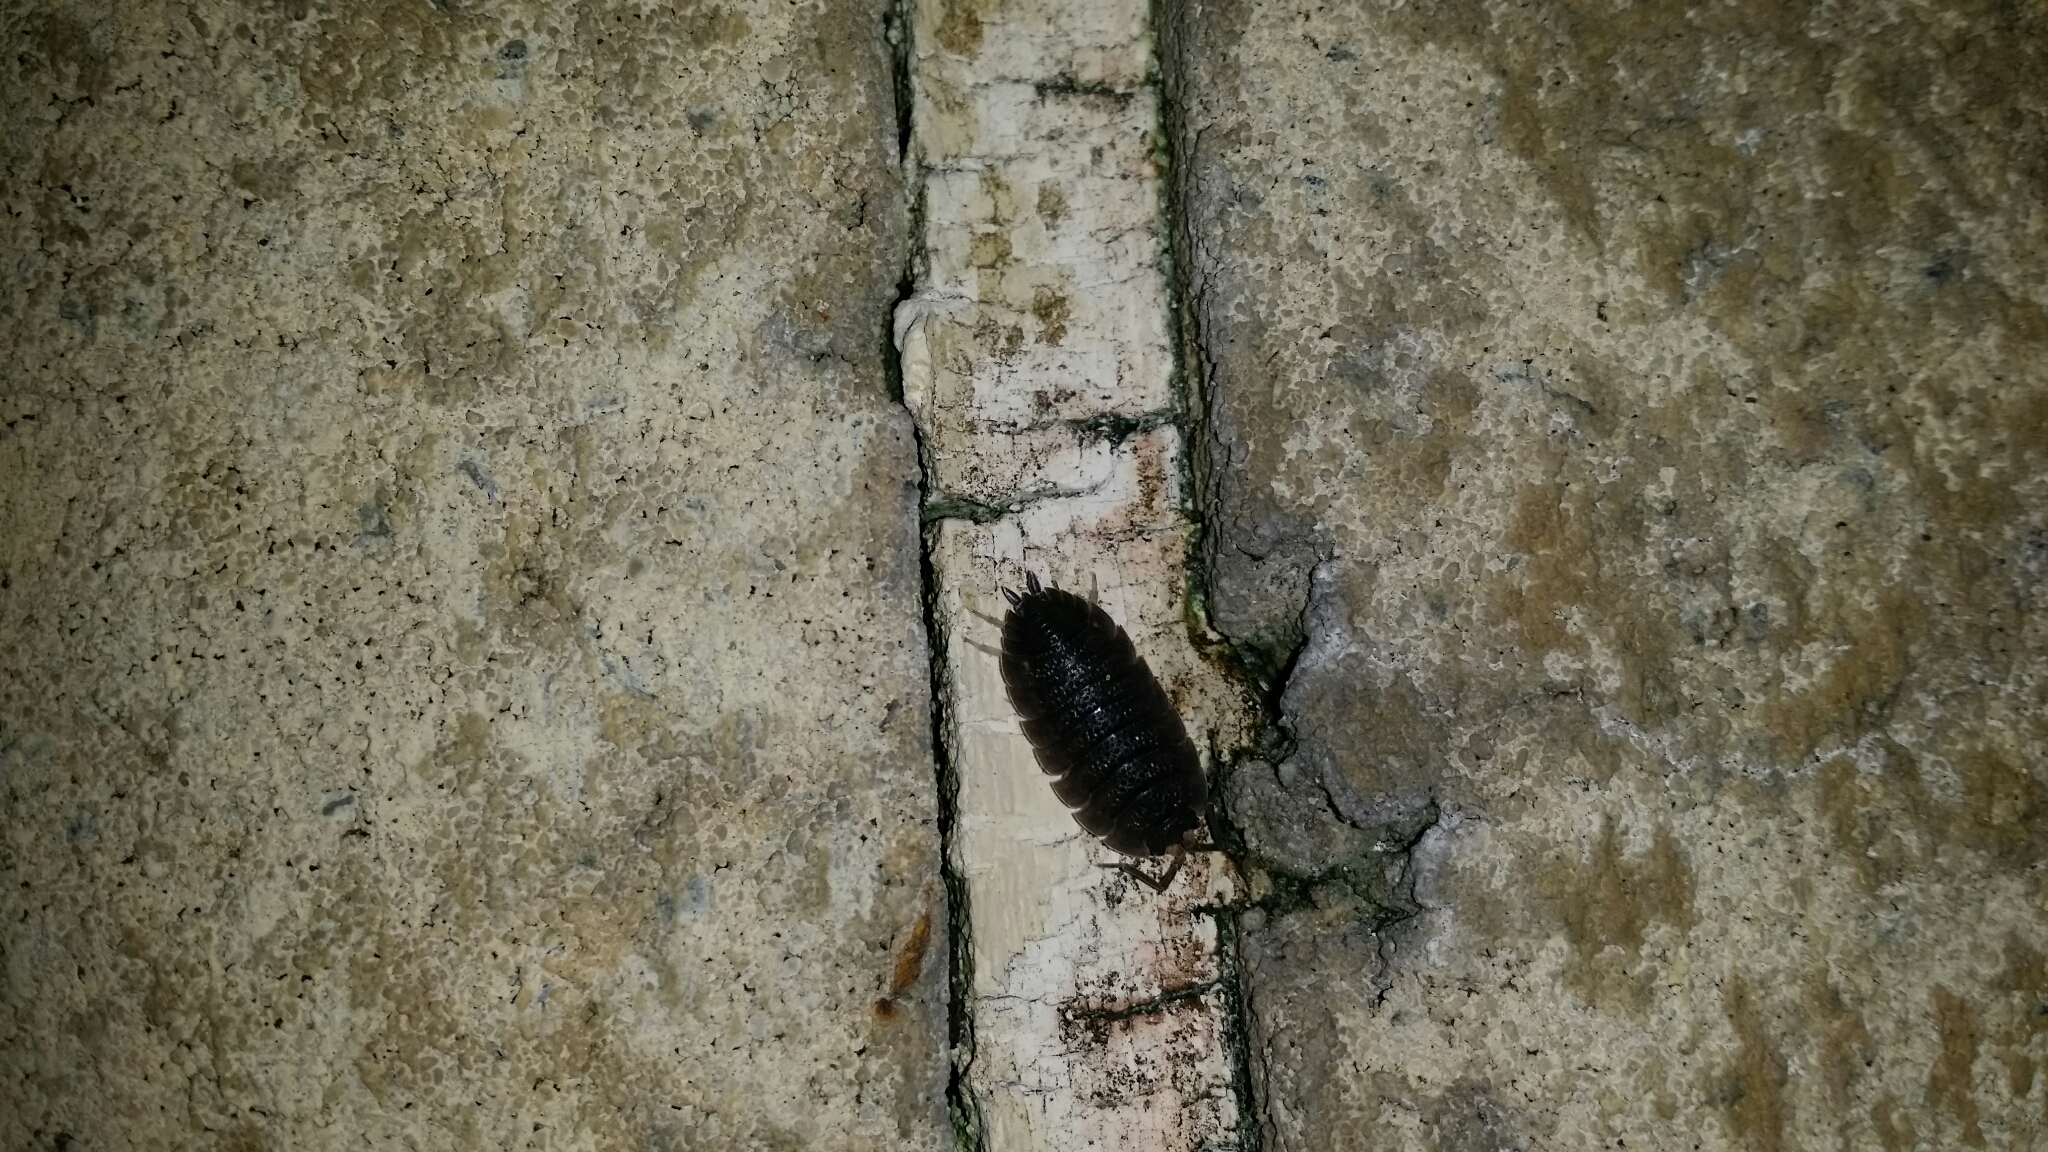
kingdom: Animalia
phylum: Arthropoda
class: Malacostraca
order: Isopoda
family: Porcellionidae
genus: Porcellio
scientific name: Porcellio scaber
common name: Common rough woodlouse
